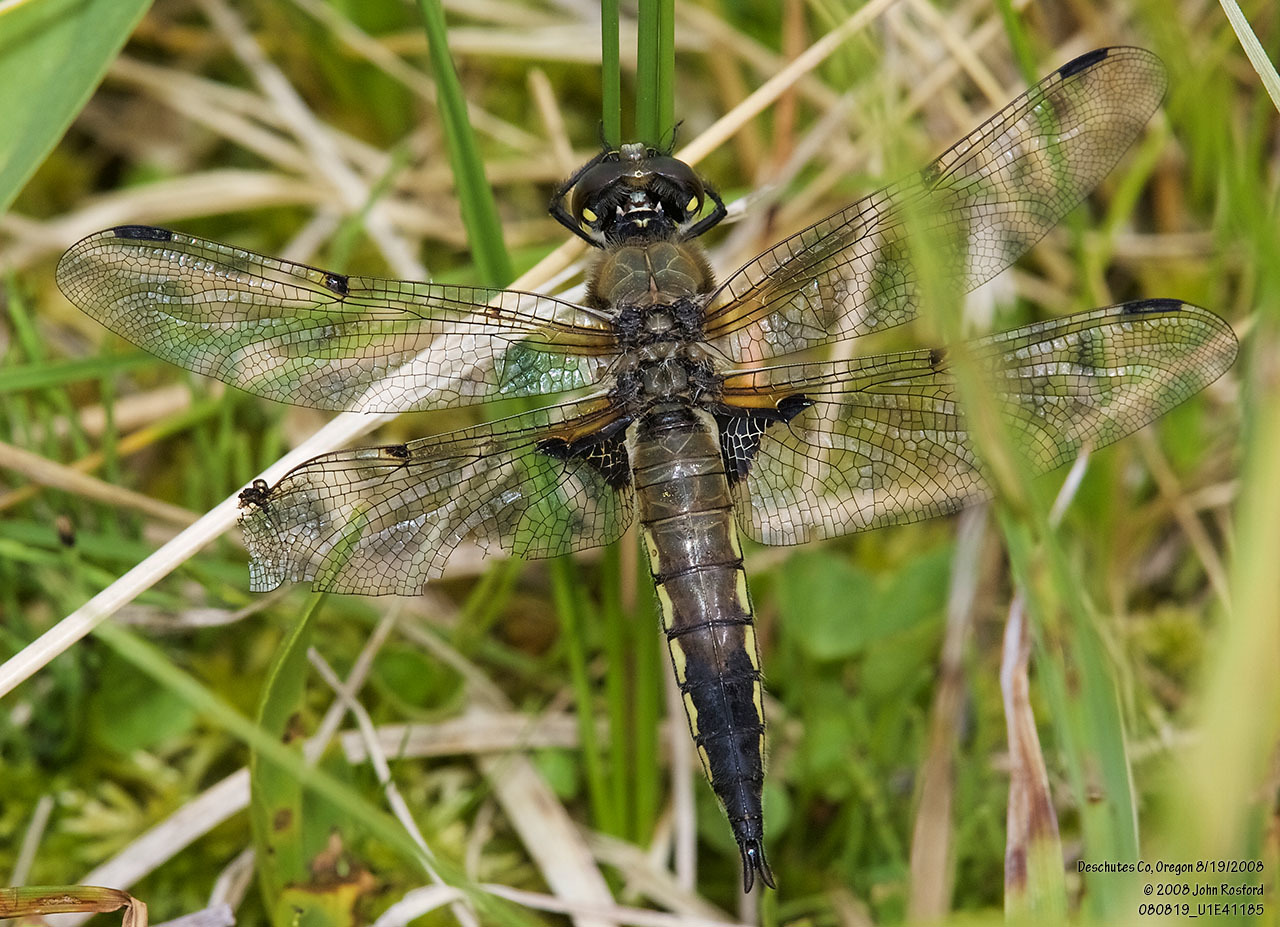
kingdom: Animalia
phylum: Arthropoda
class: Insecta
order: Odonata
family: Libellulidae
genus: Libellula
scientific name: Libellula quadrimaculata
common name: Four-spotted chaser
